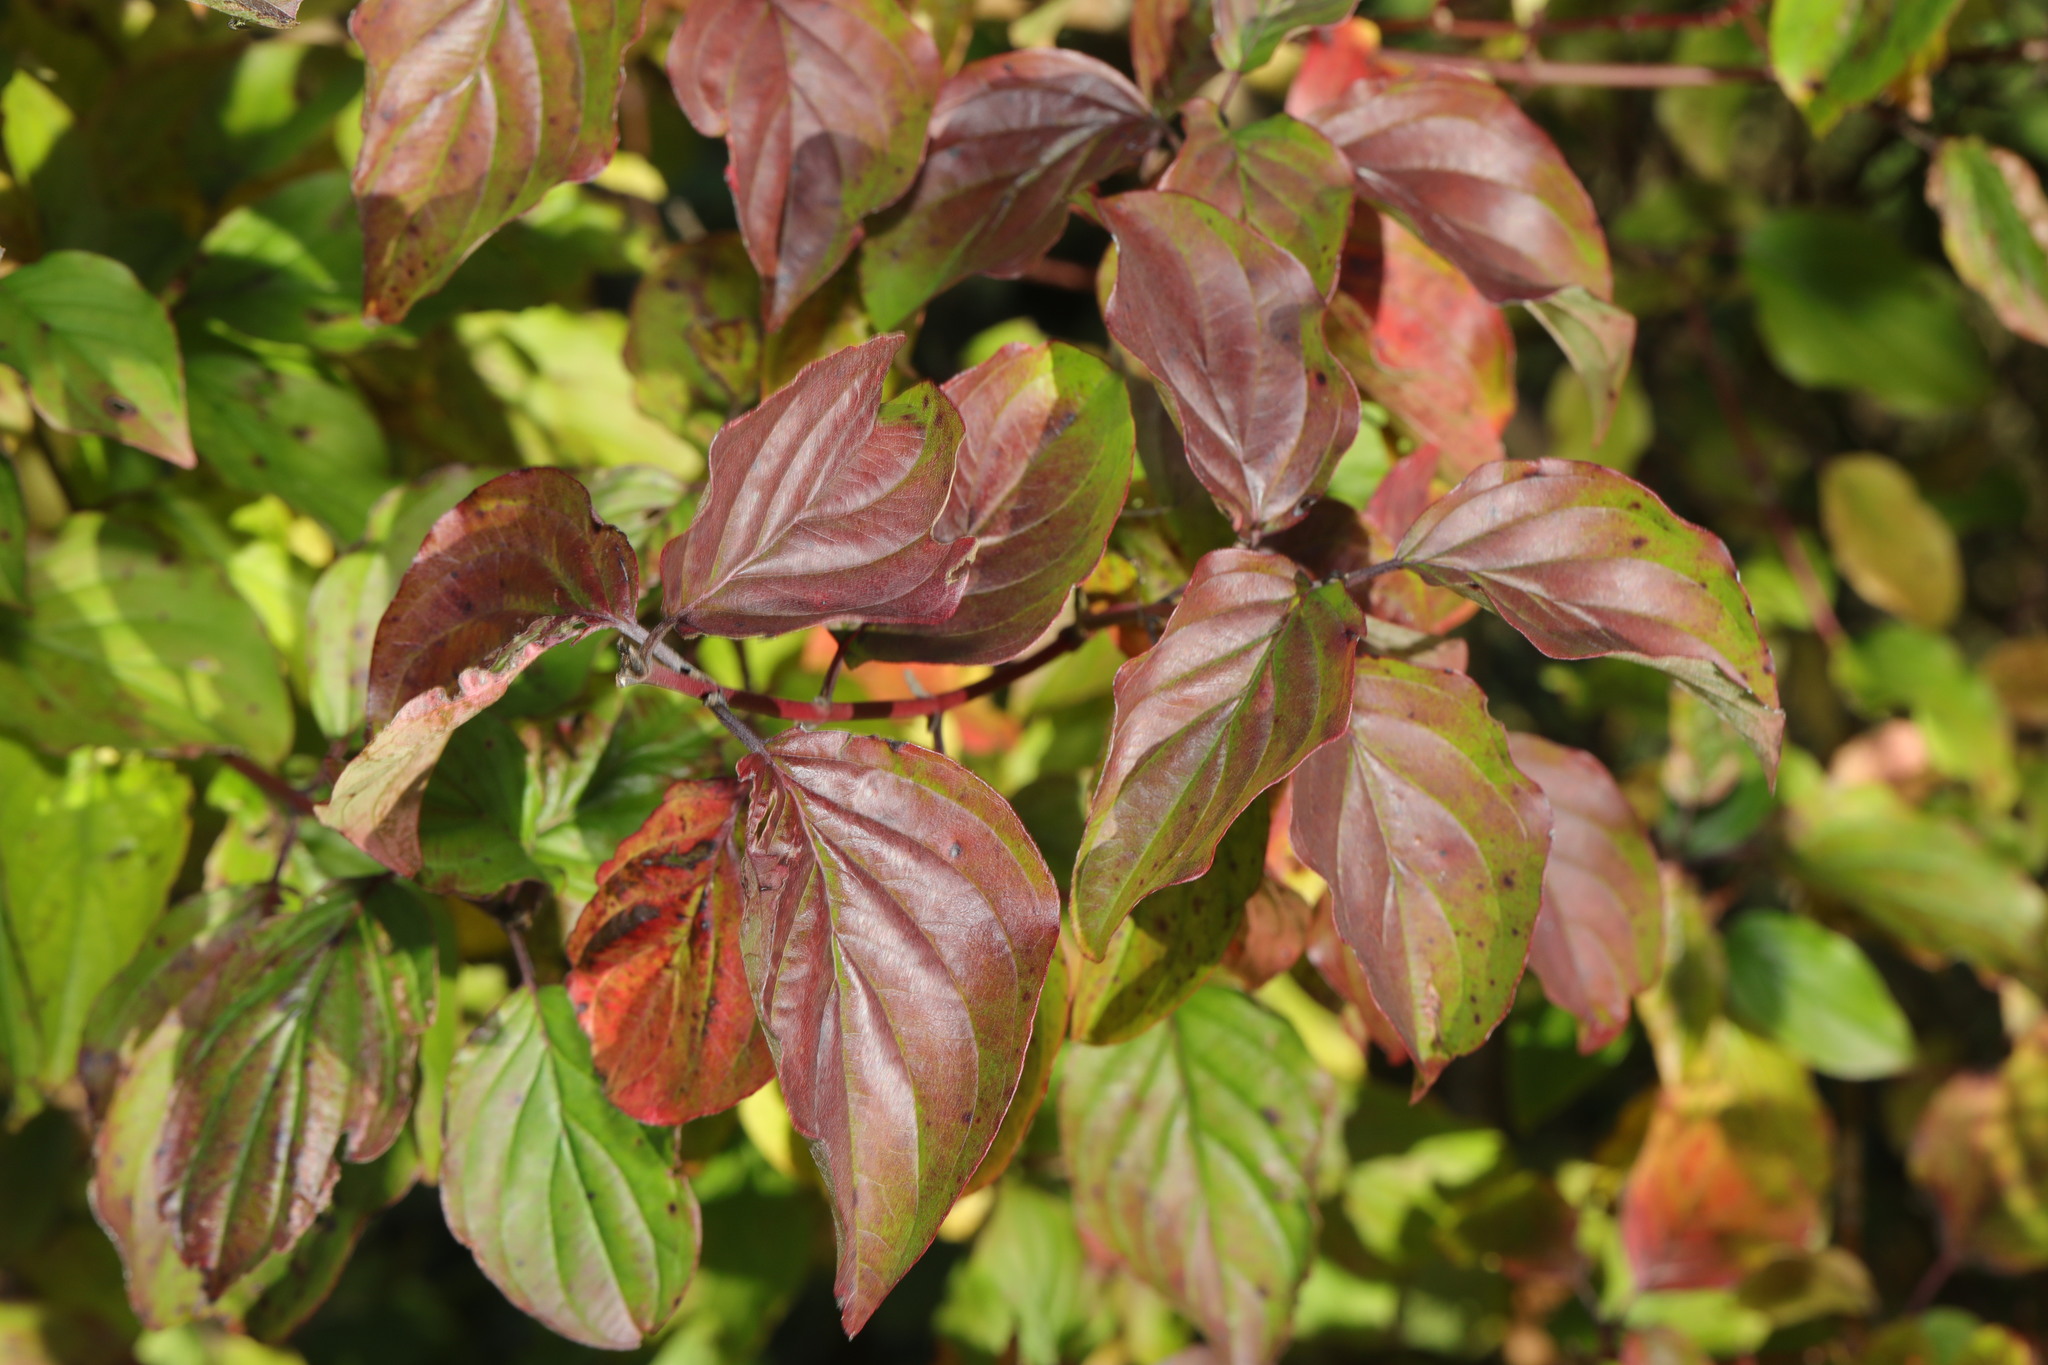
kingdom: Plantae
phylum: Tracheophyta
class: Magnoliopsida
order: Cornales
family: Cornaceae
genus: Cornus
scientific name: Cornus sanguinea
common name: Dogwood
